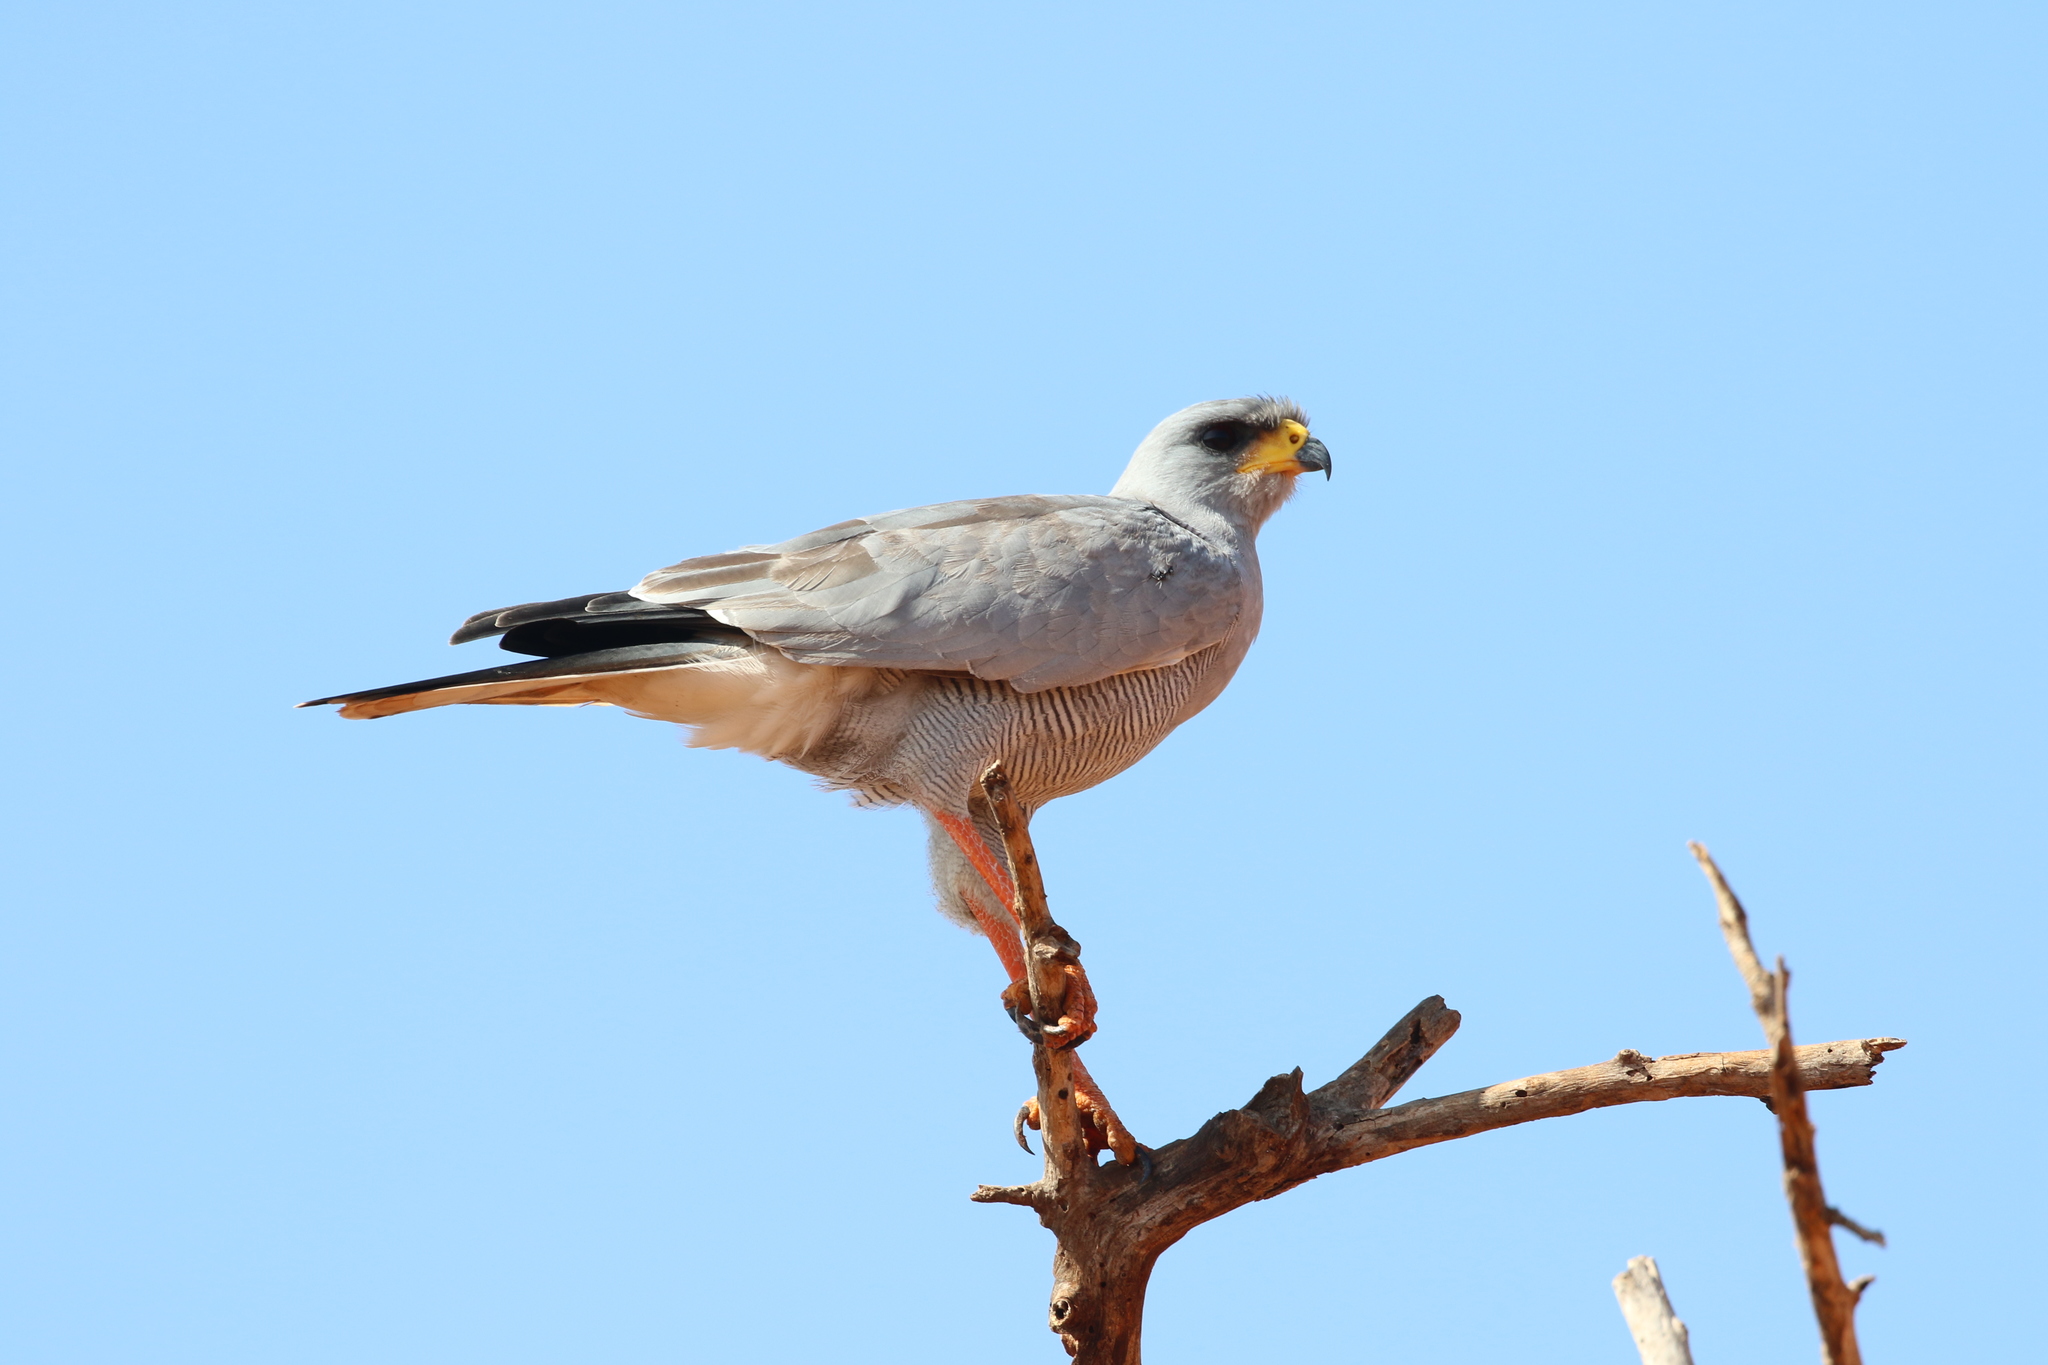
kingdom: Animalia
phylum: Chordata
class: Aves
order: Accipitriformes
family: Accipitridae
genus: Melierax
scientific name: Melierax poliopterus
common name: Eastern chanting goshawk
